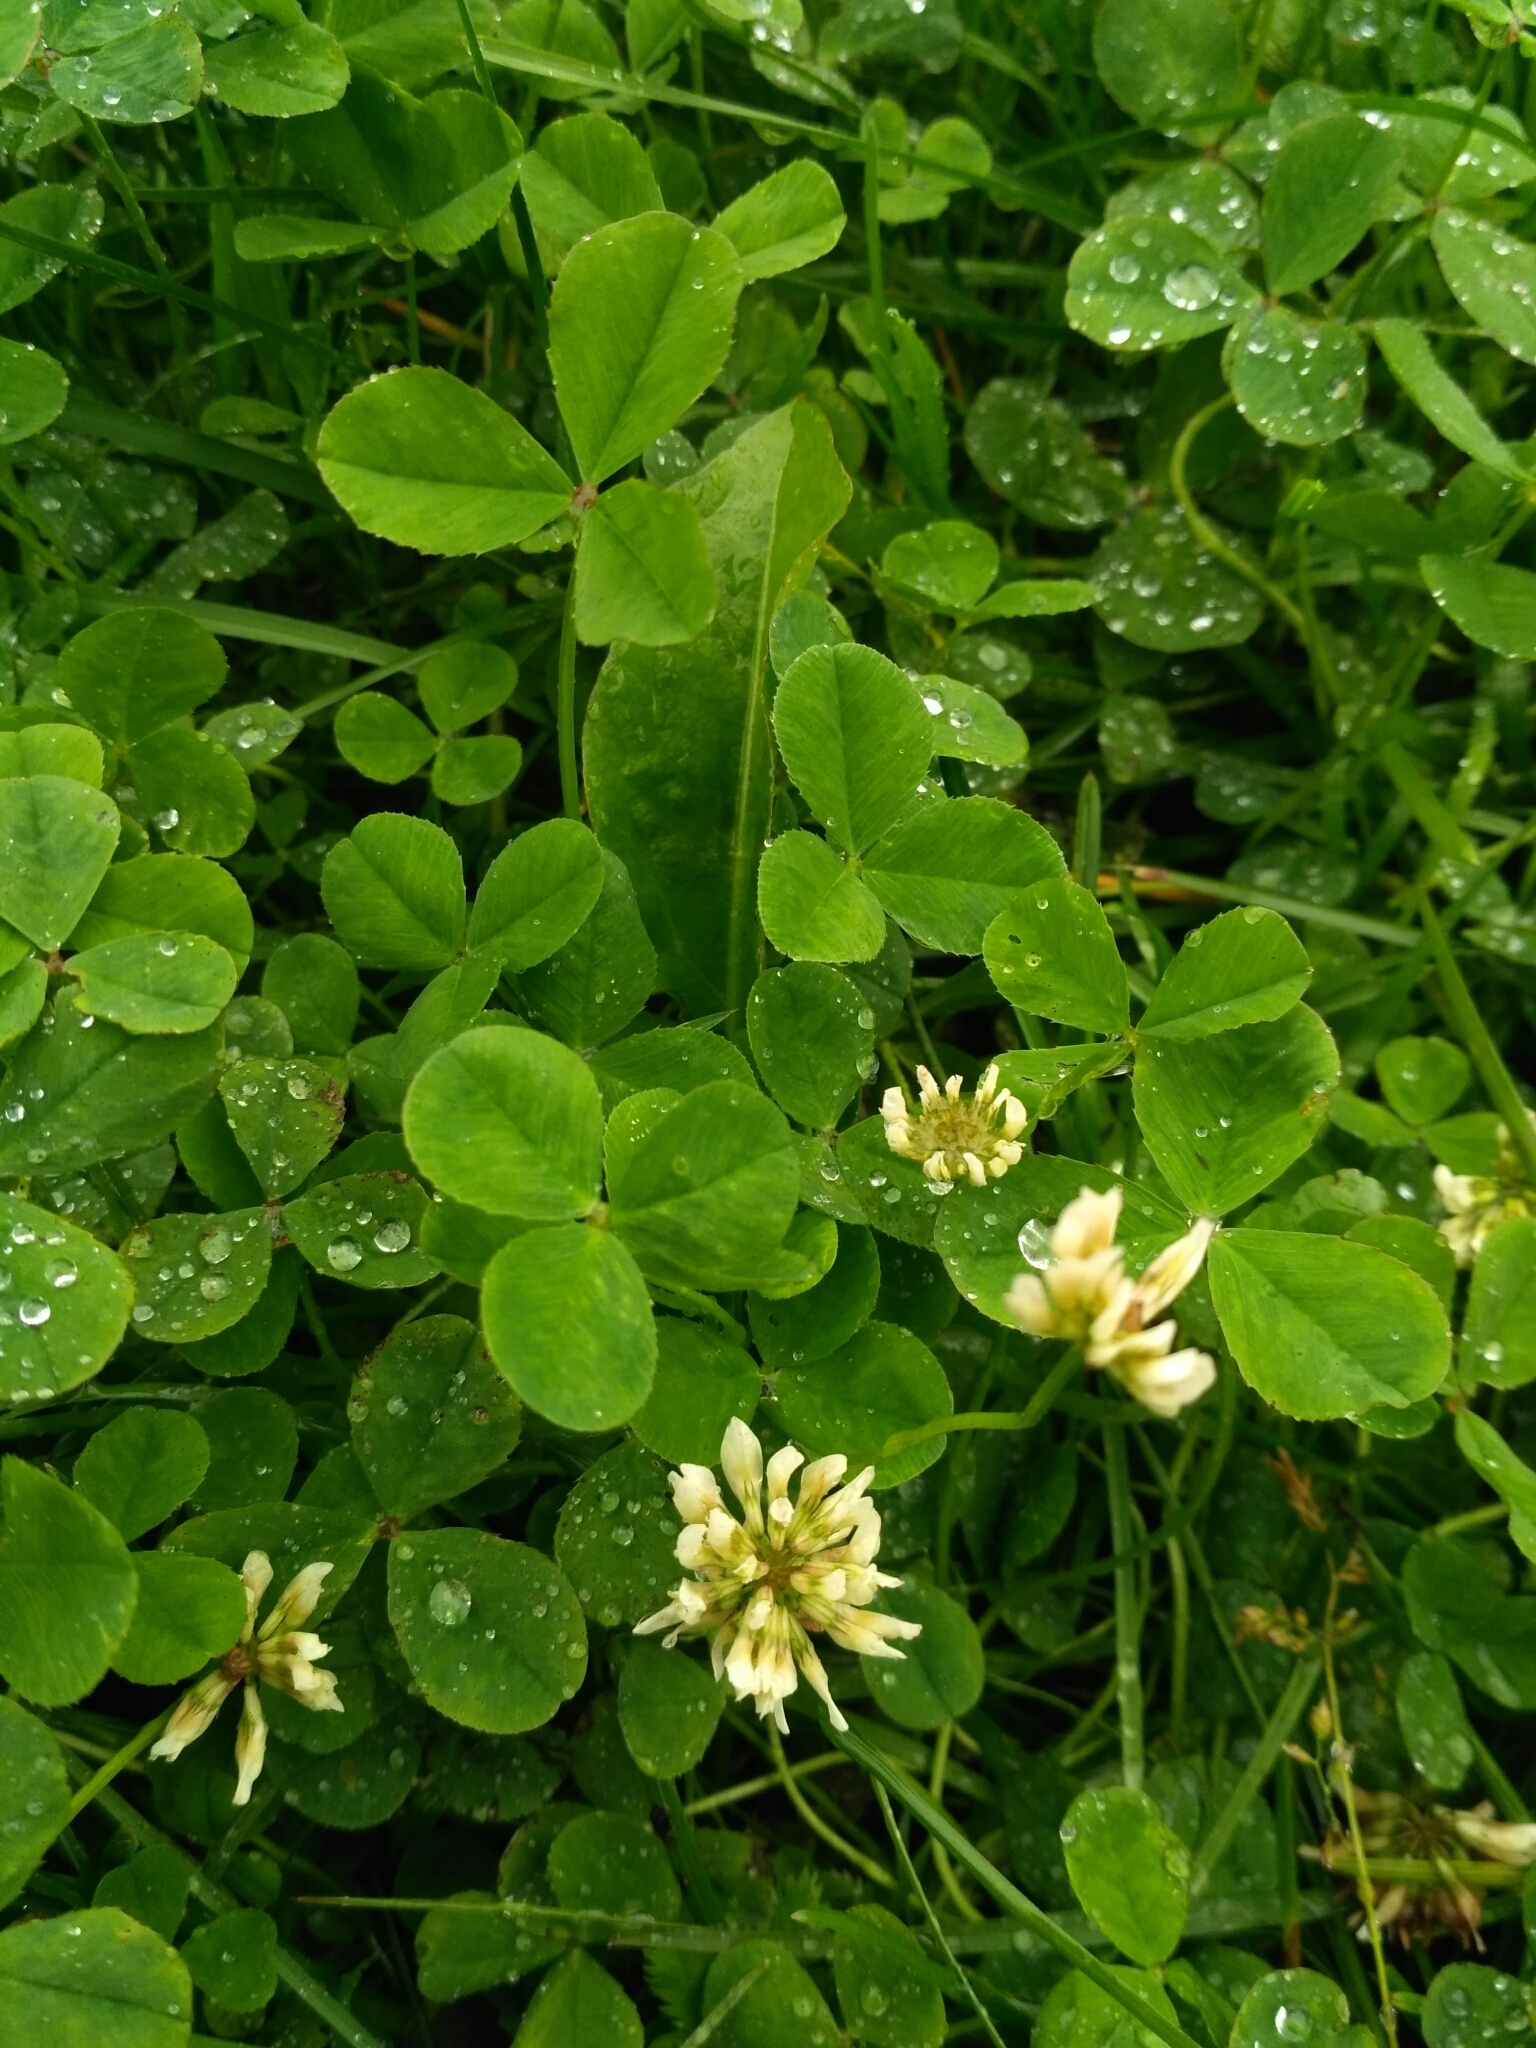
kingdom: Plantae
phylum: Tracheophyta
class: Magnoliopsida
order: Fabales
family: Fabaceae
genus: Trifolium
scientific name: Trifolium repens
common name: White clover
